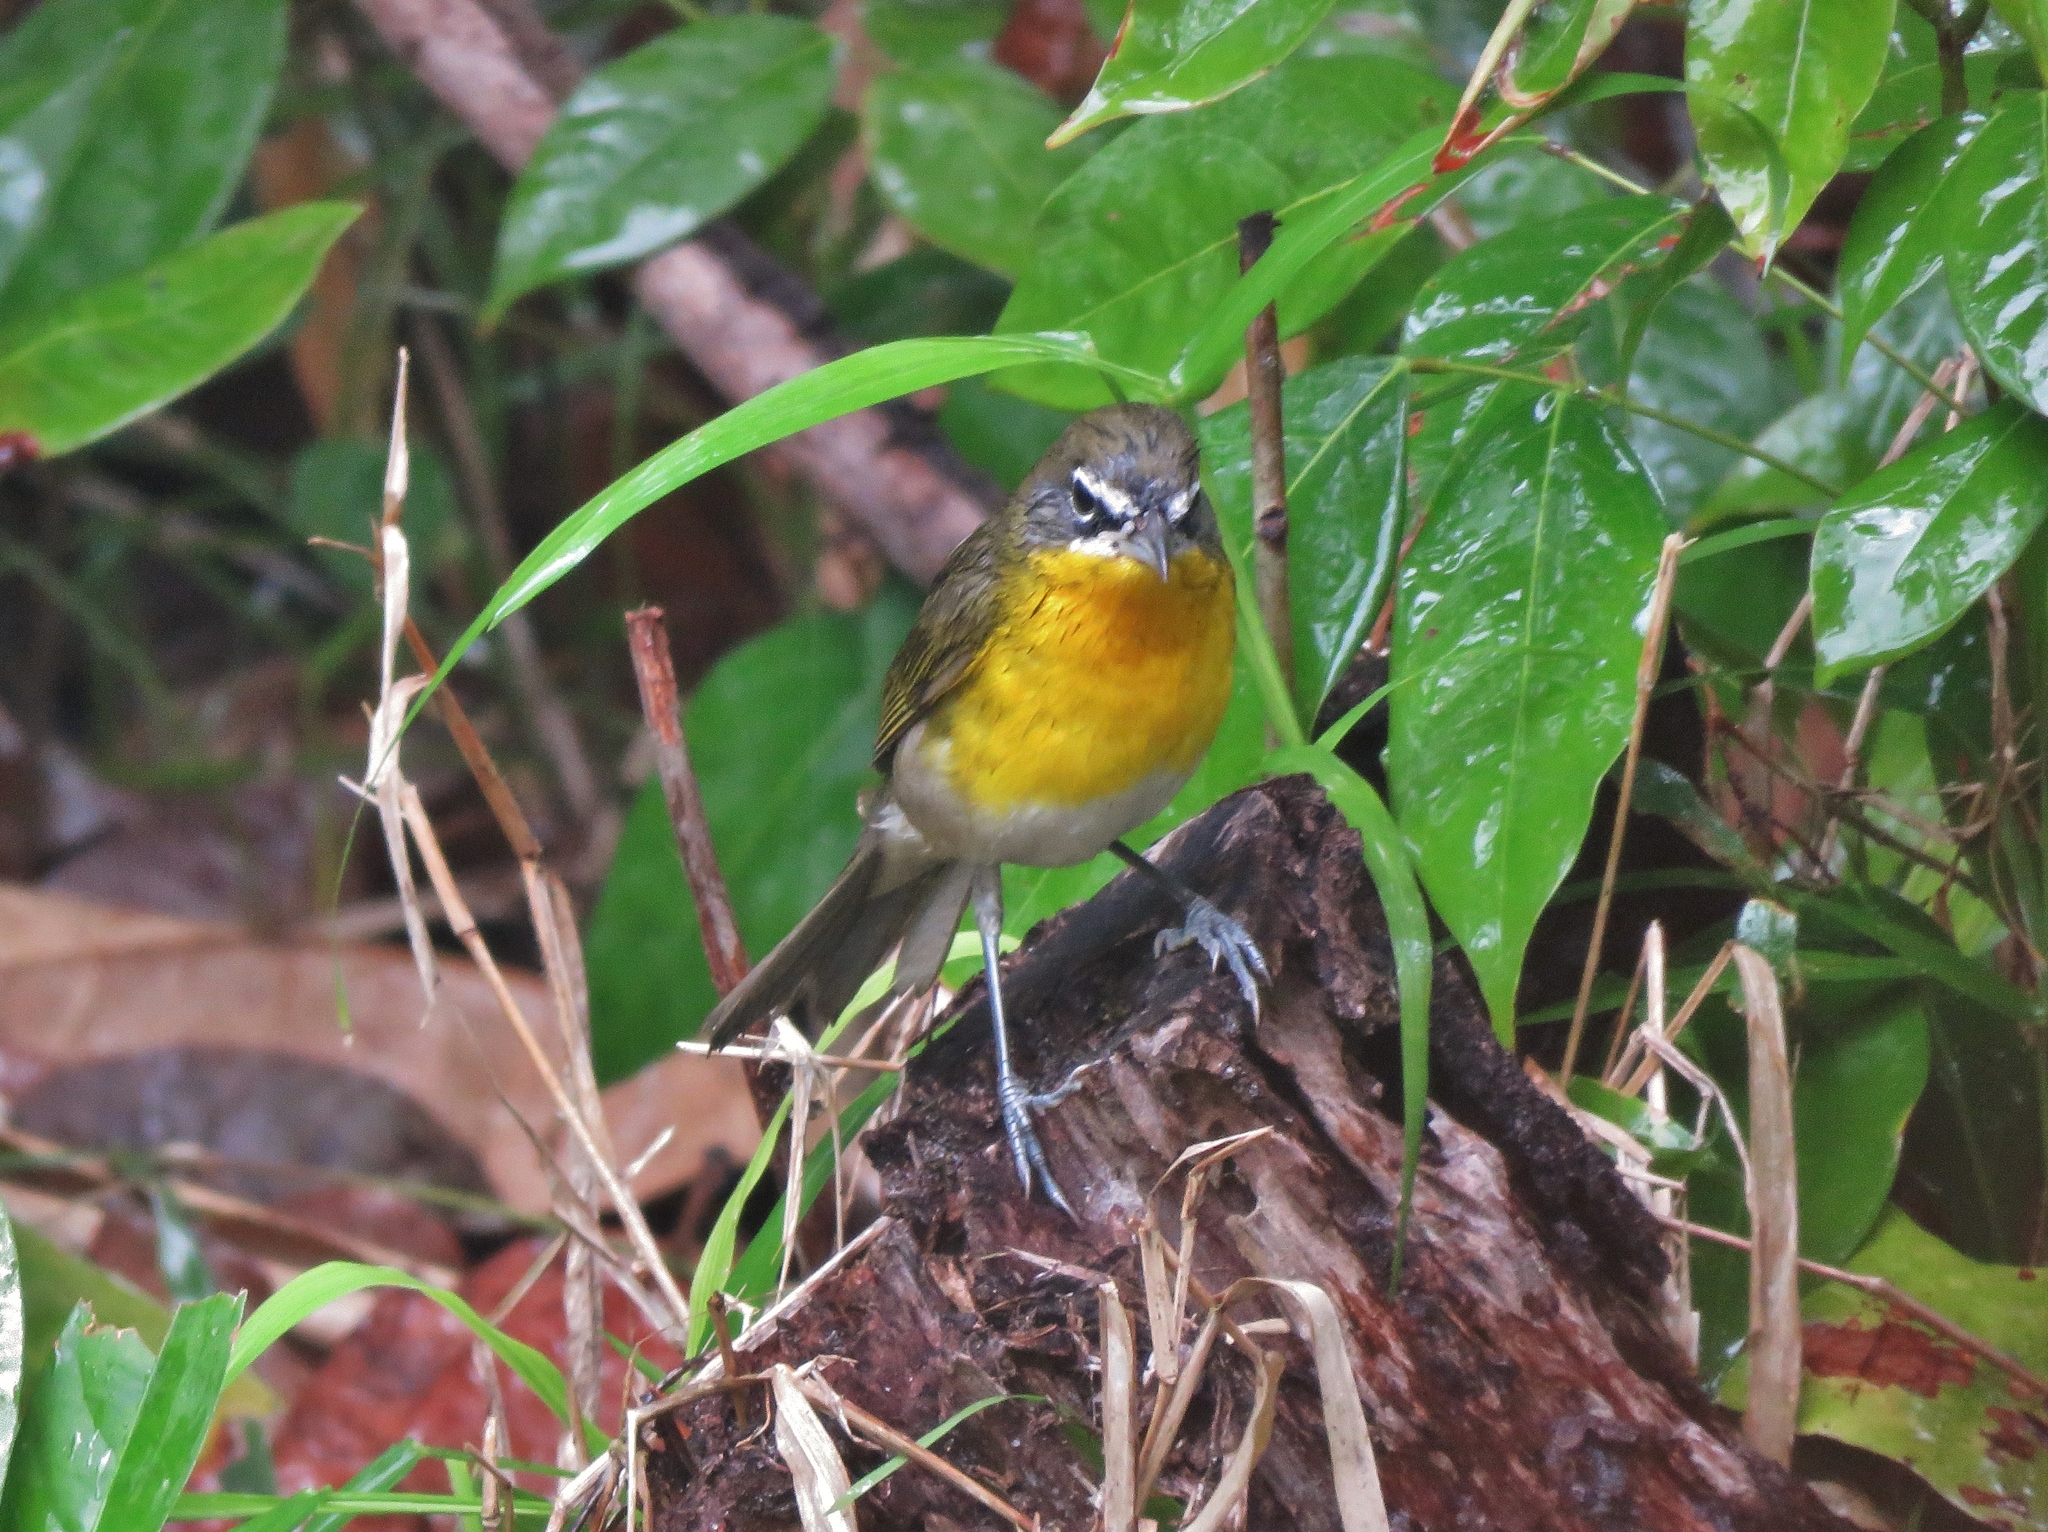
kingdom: Animalia
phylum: Chordata
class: Aves
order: Passeriformes
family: Parulidae
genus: Icteria
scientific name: Icteria virens
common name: Yellow-breasted chat
